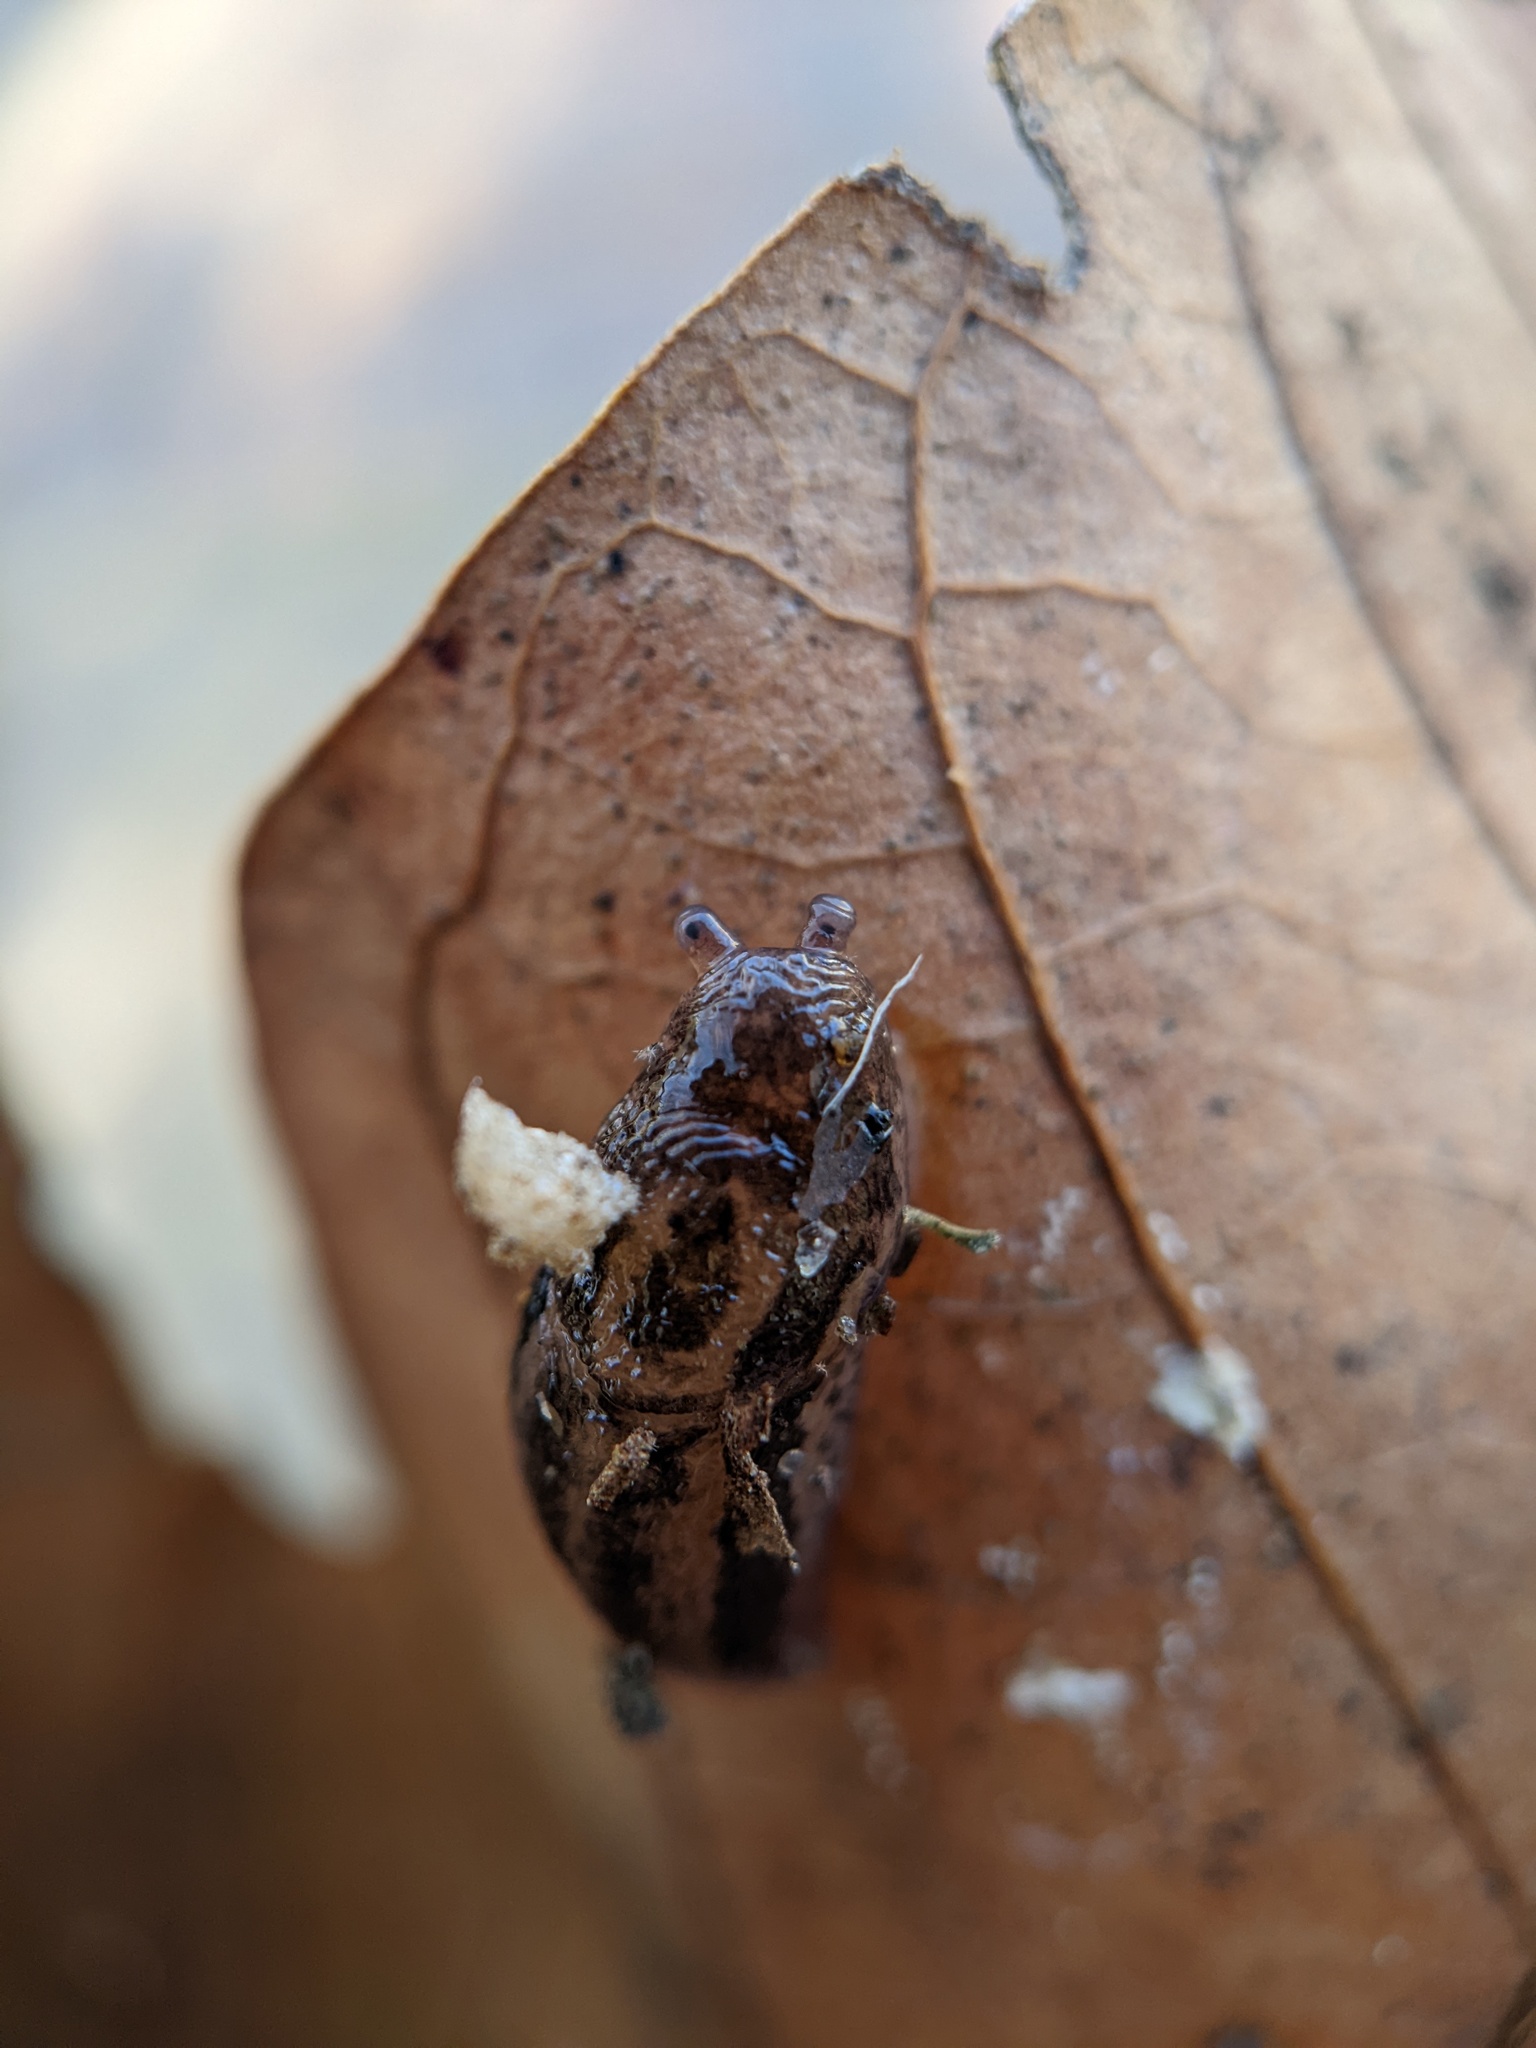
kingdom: Animalia
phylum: Mollusca
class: Gastropoda
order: Stylommatophora
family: Limacidae
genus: Limax
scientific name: Limax maximus
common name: Great grey slug
